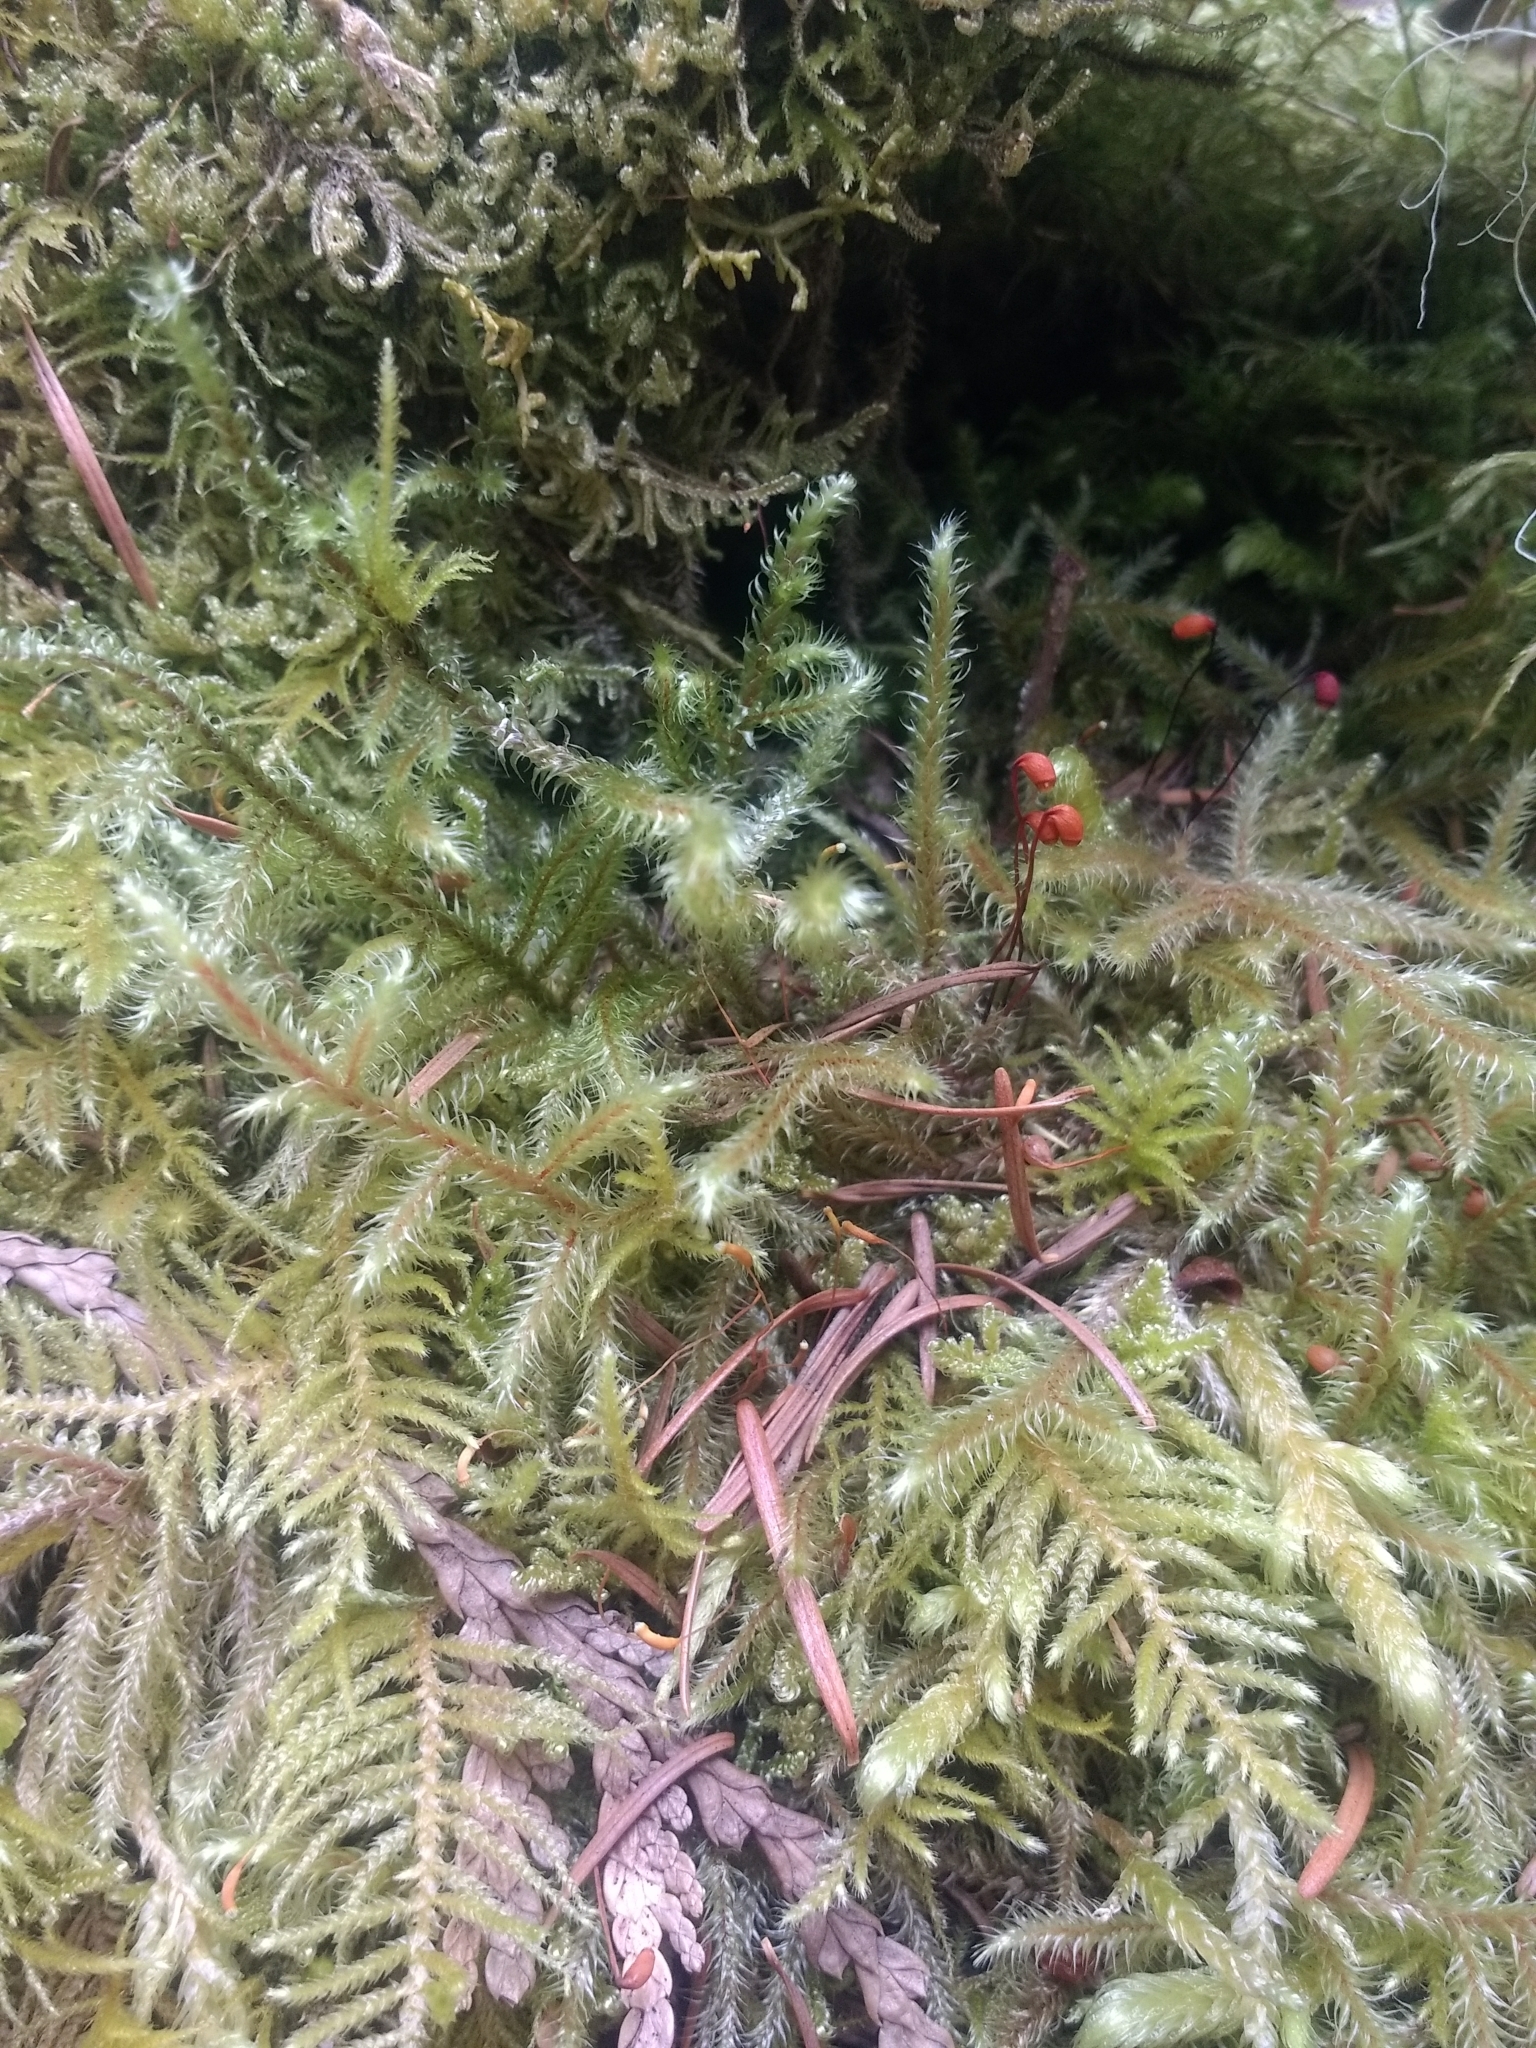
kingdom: Plantae
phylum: Bryophyta
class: Bryopsida
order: Hypnales
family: Hylocomiaceae
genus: Rhytidiadelphus
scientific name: Rhytidiadelphus loreus
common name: Lanky moss
